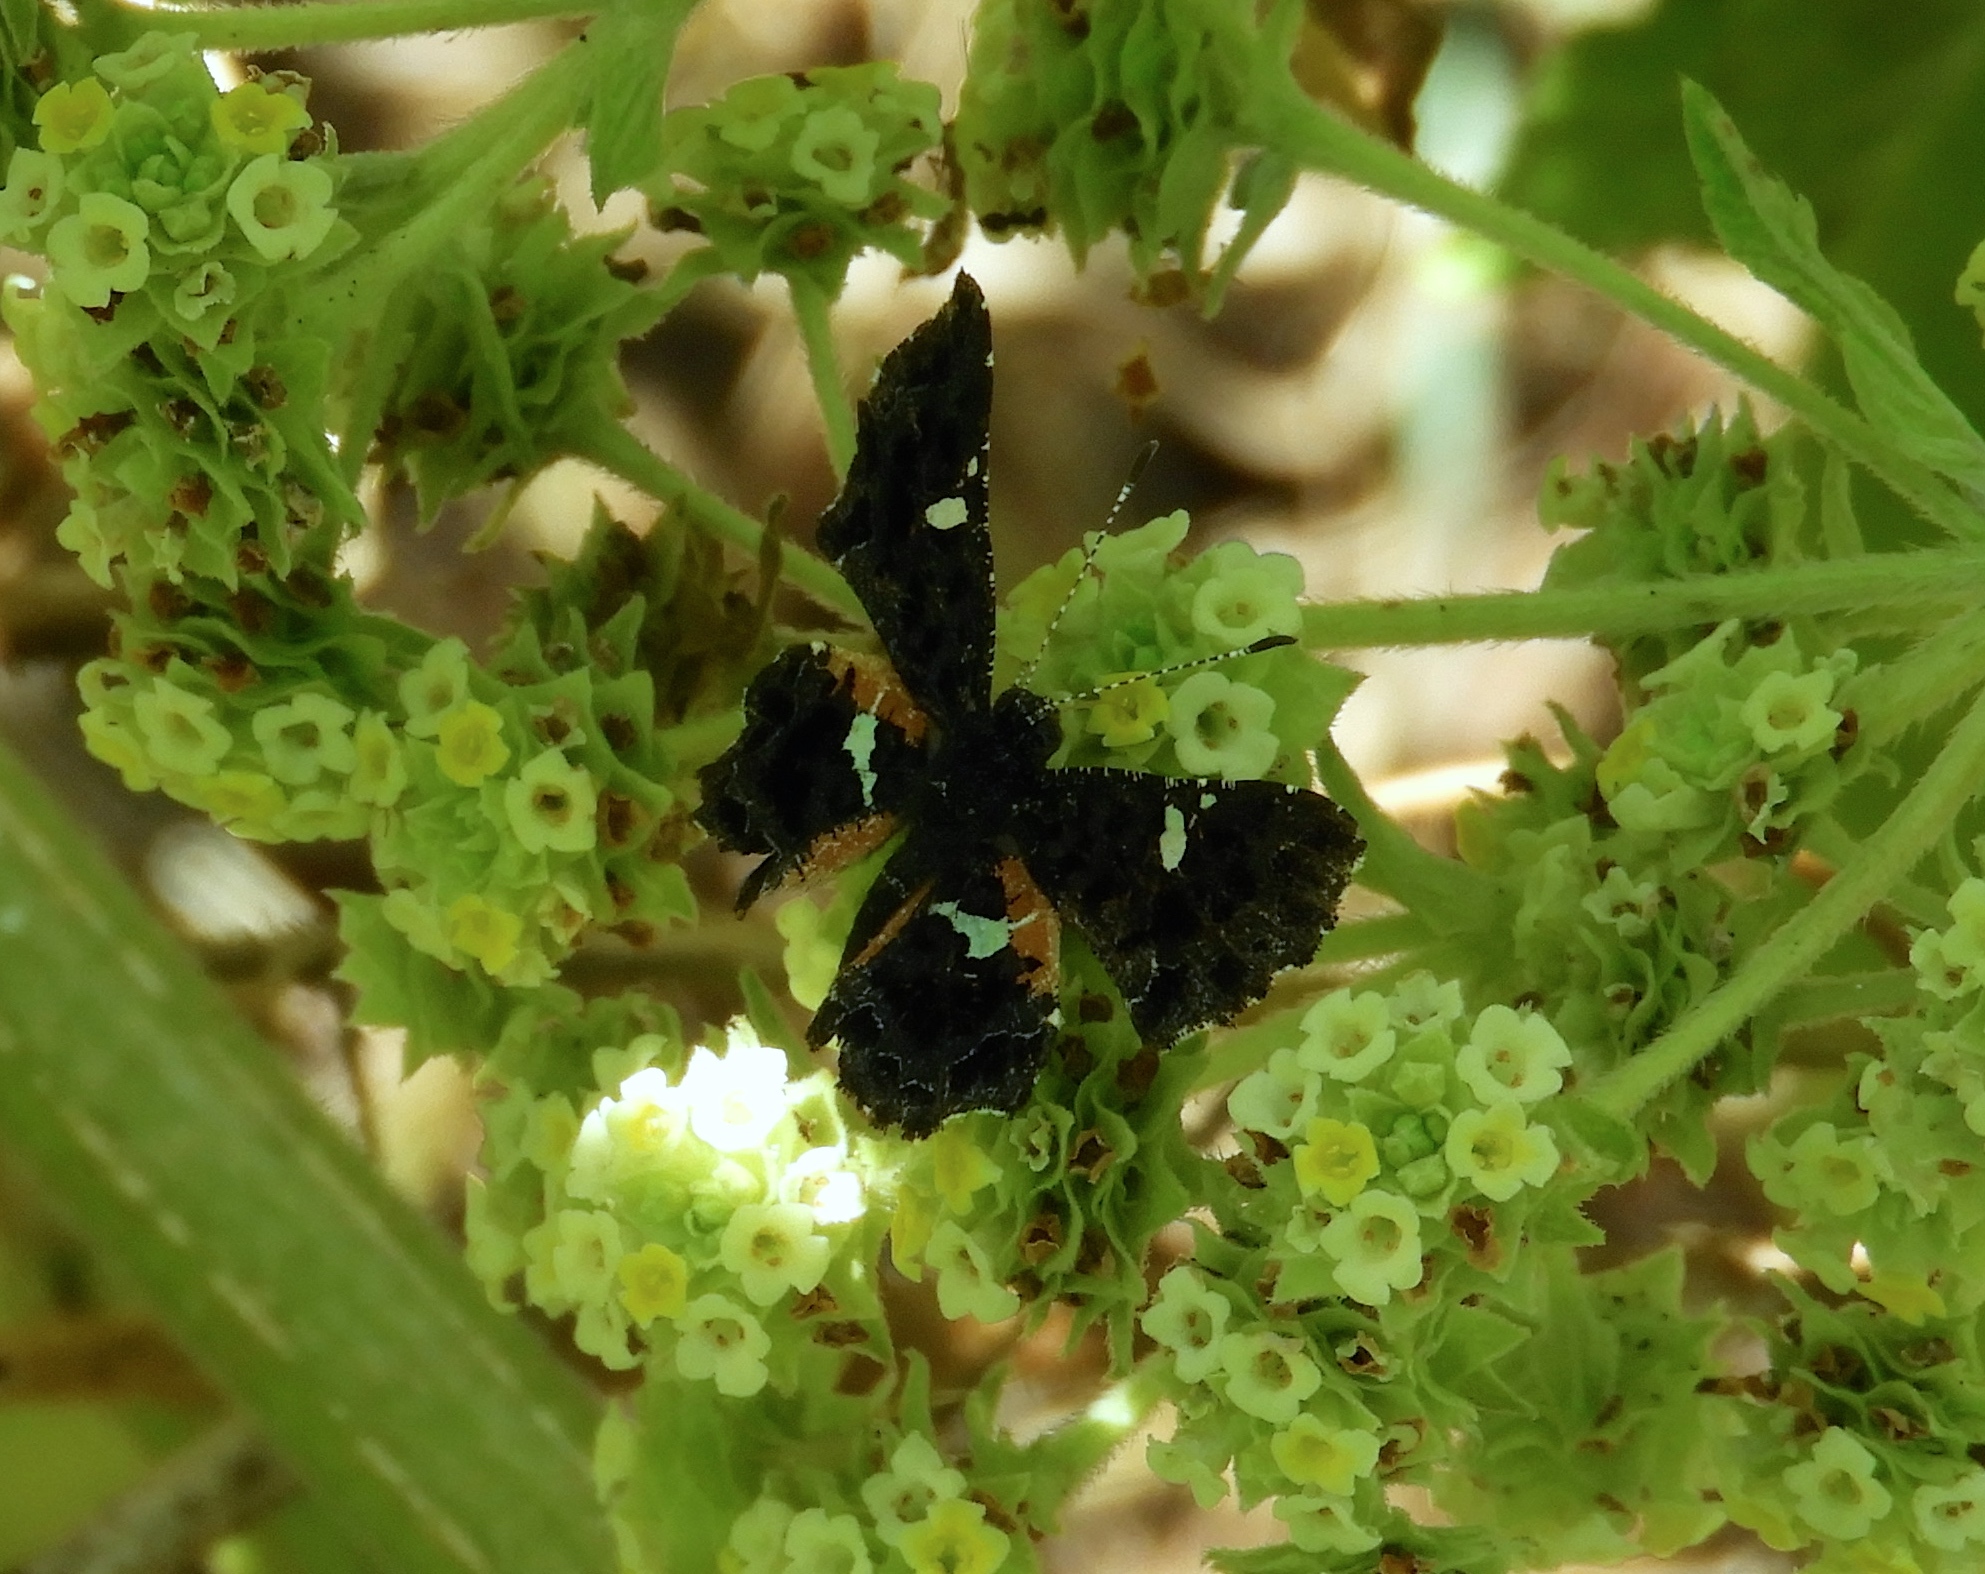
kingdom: Animalia
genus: Calydna
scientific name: Calydna sturnula
